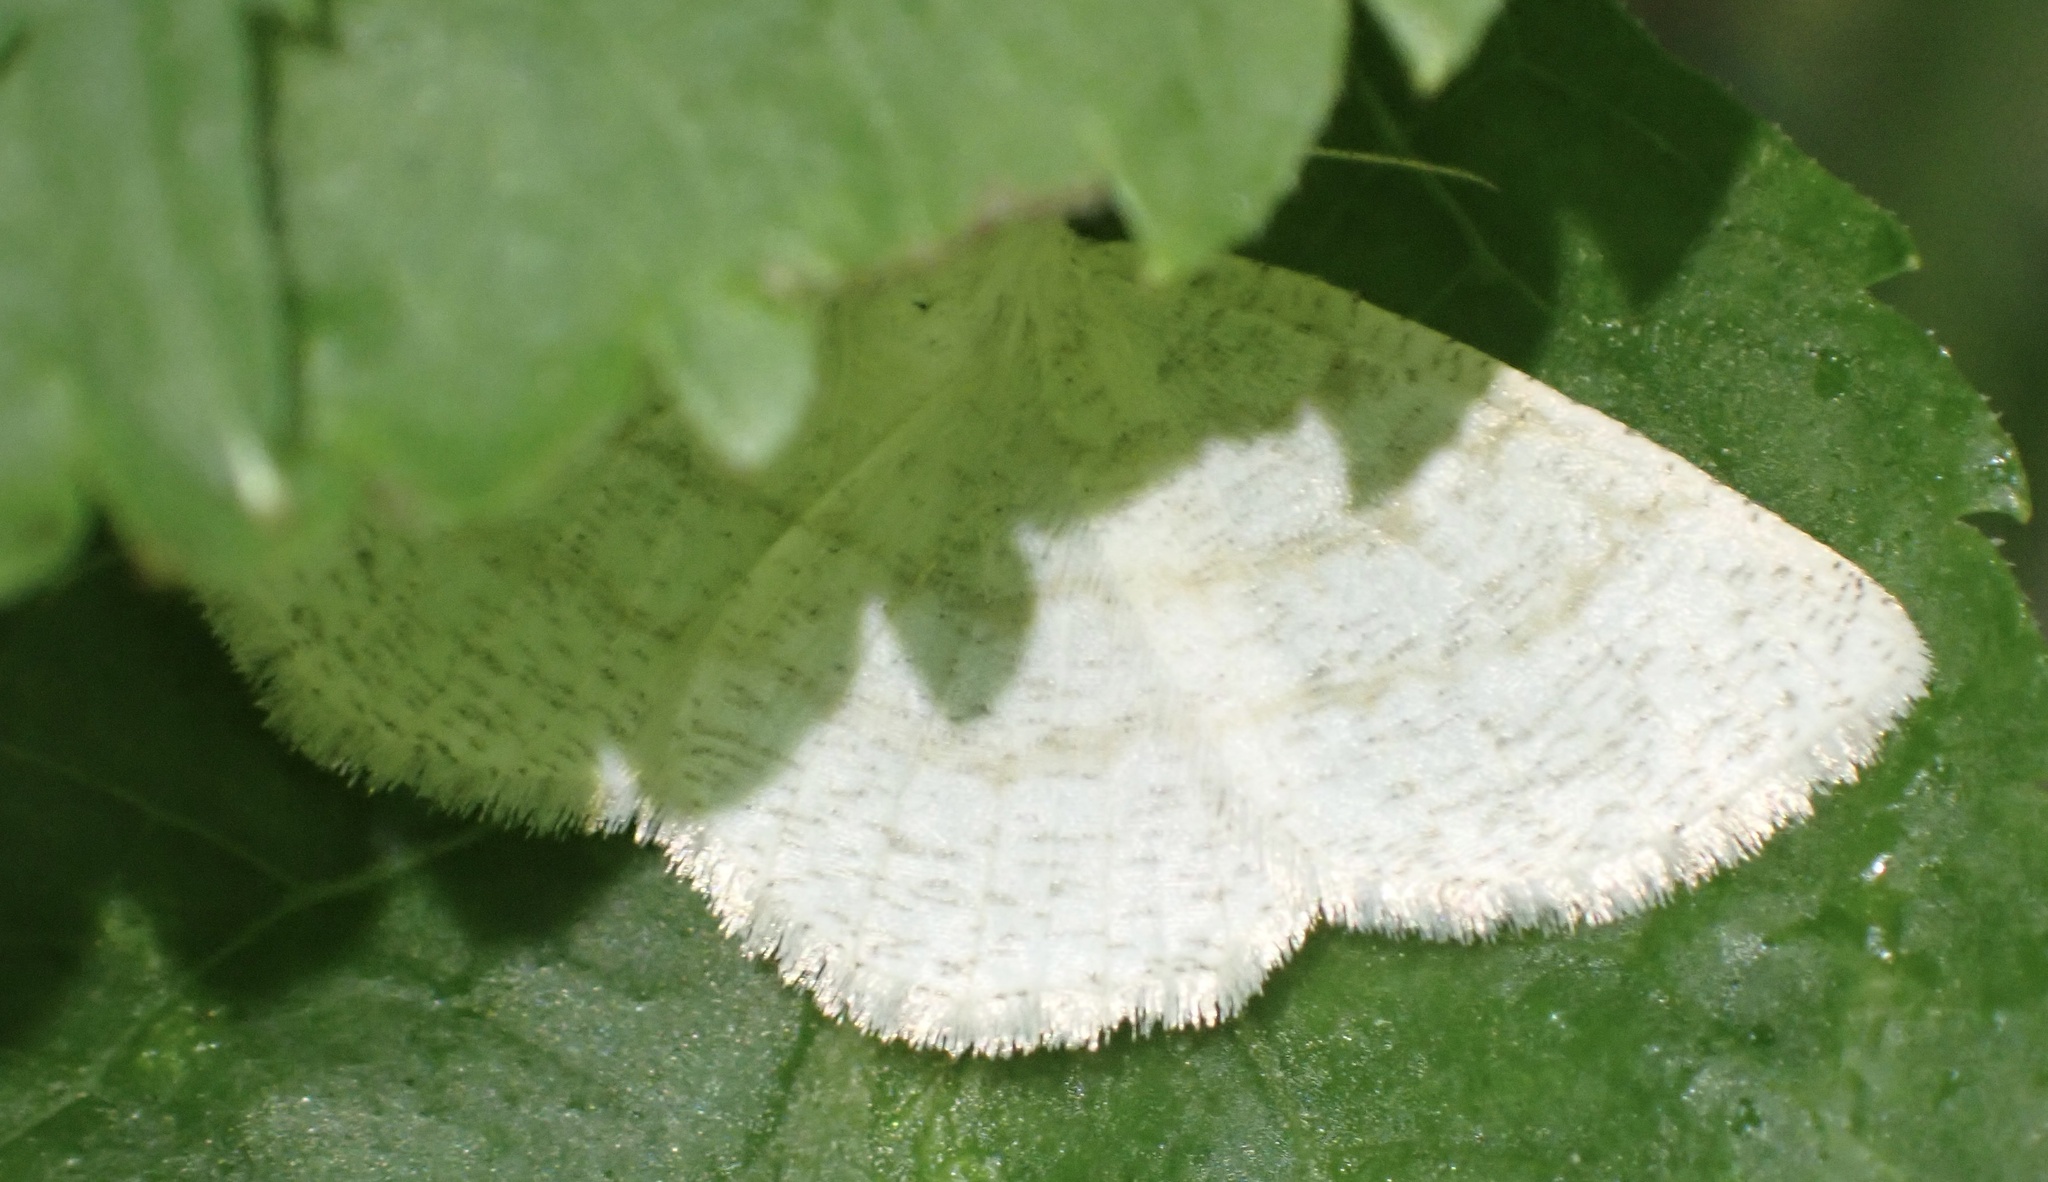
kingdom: Animalia
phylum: Arthropoda
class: Insecta
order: Lepidoptera
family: Geometridae
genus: Cabera
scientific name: Cabera exanthemata
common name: Common wave
